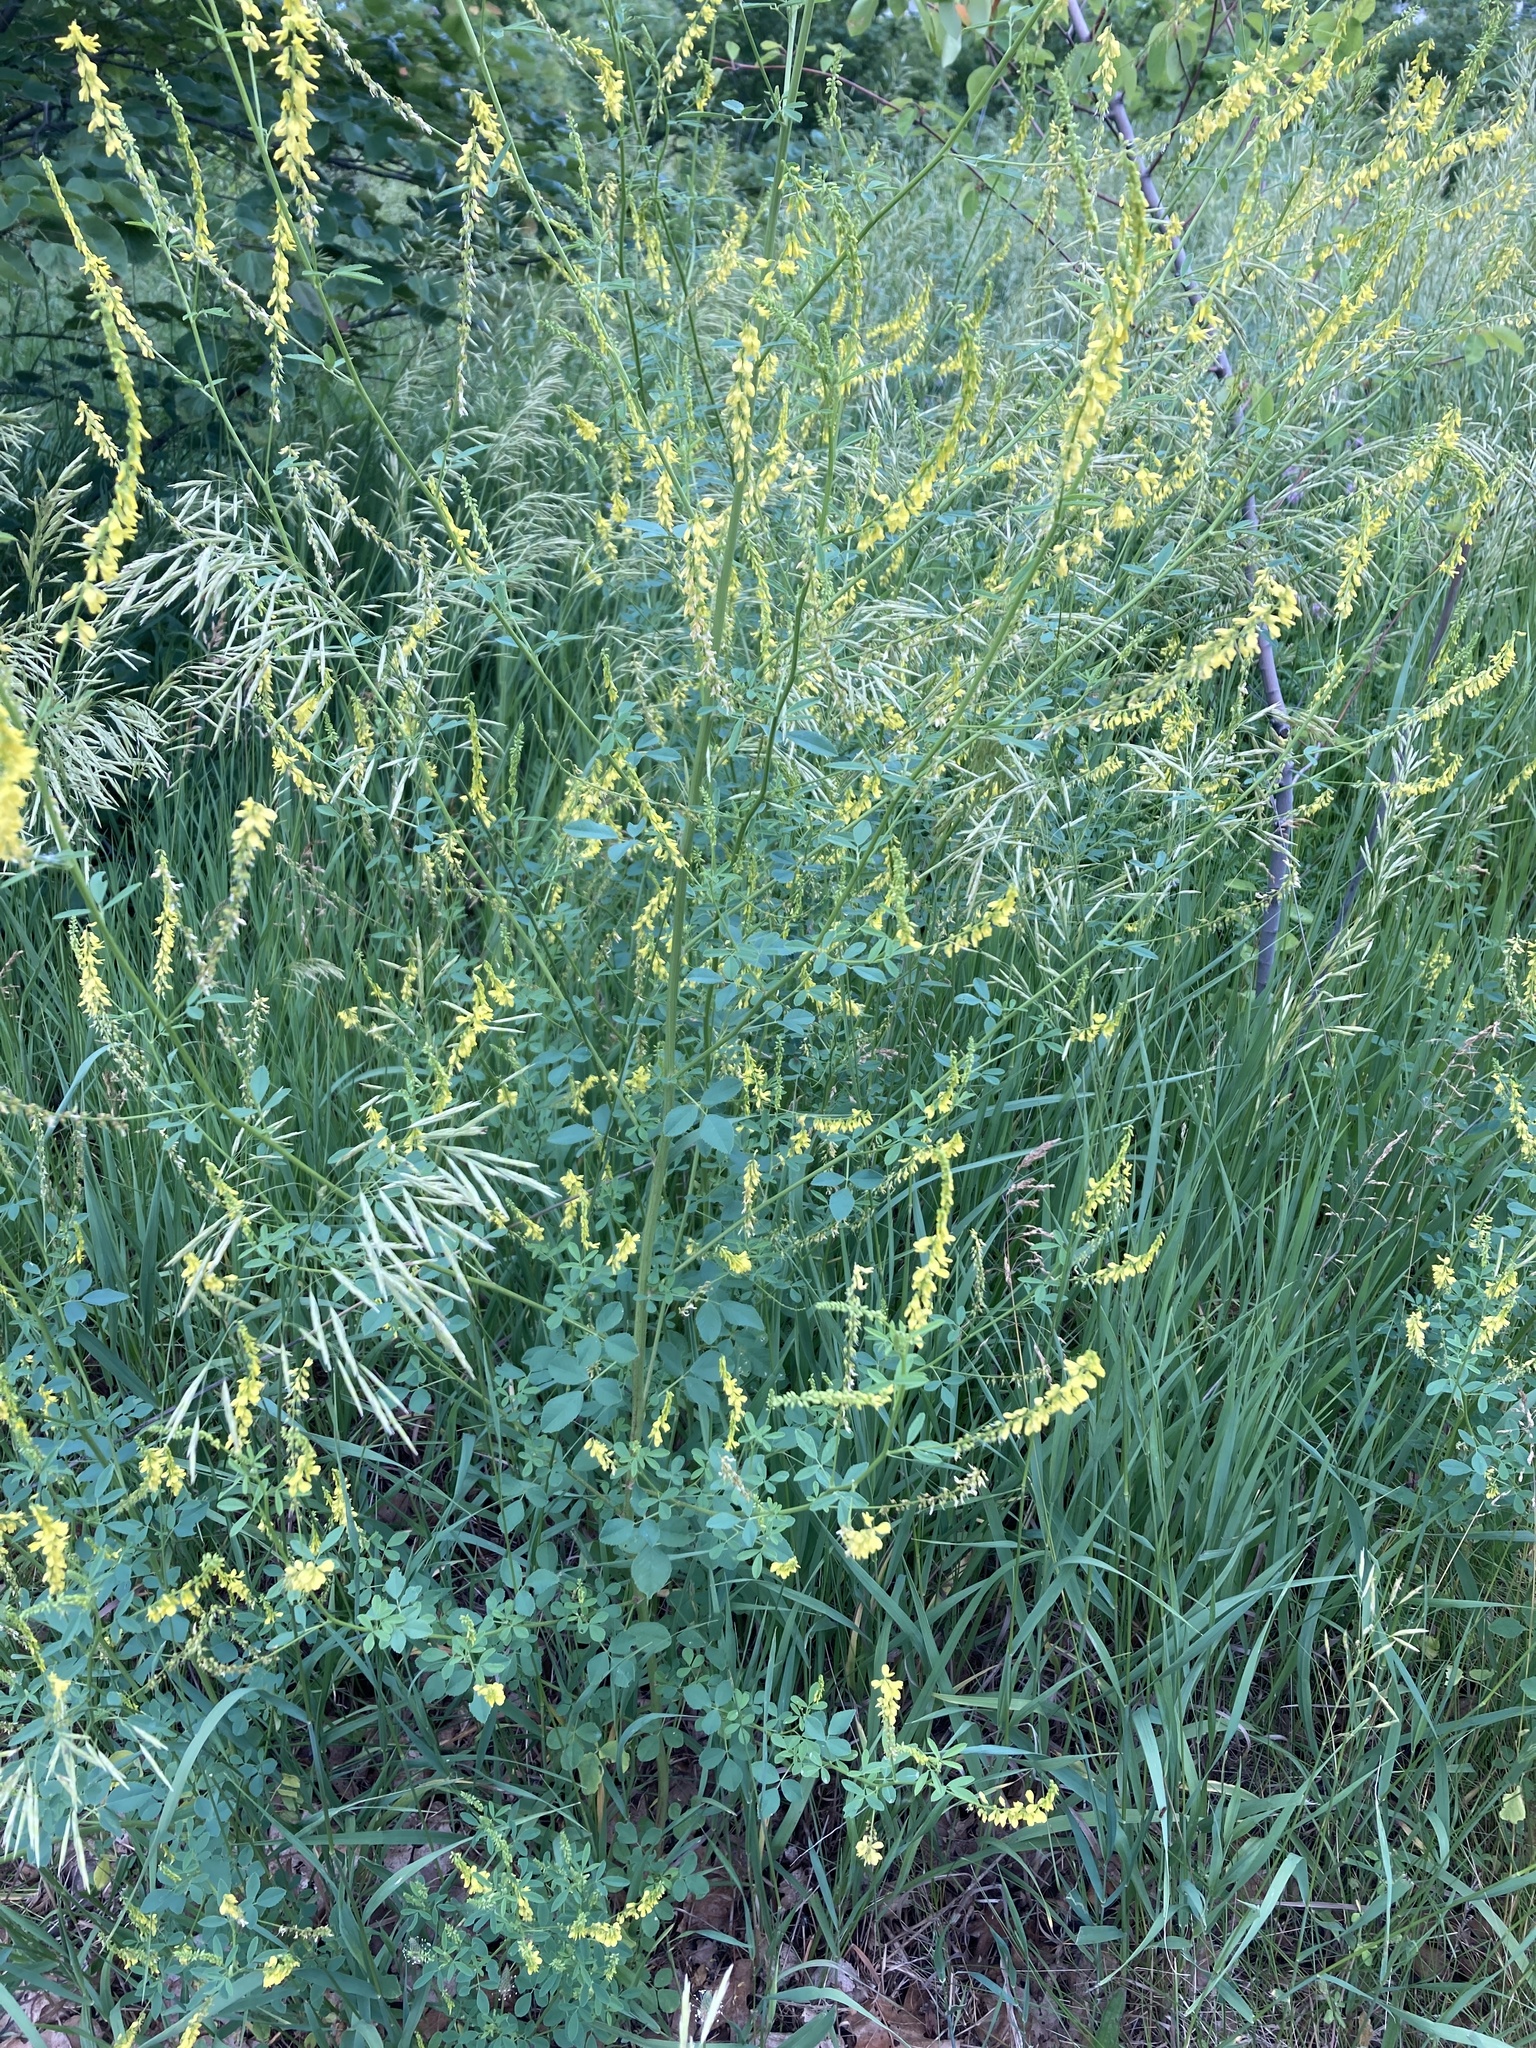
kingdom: Plantae
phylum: Tracheophyta
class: Magnoliopsida
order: Fabales
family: Fabaceae
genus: Melilotus
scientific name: Melilotus officinalis
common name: Sweetclover
